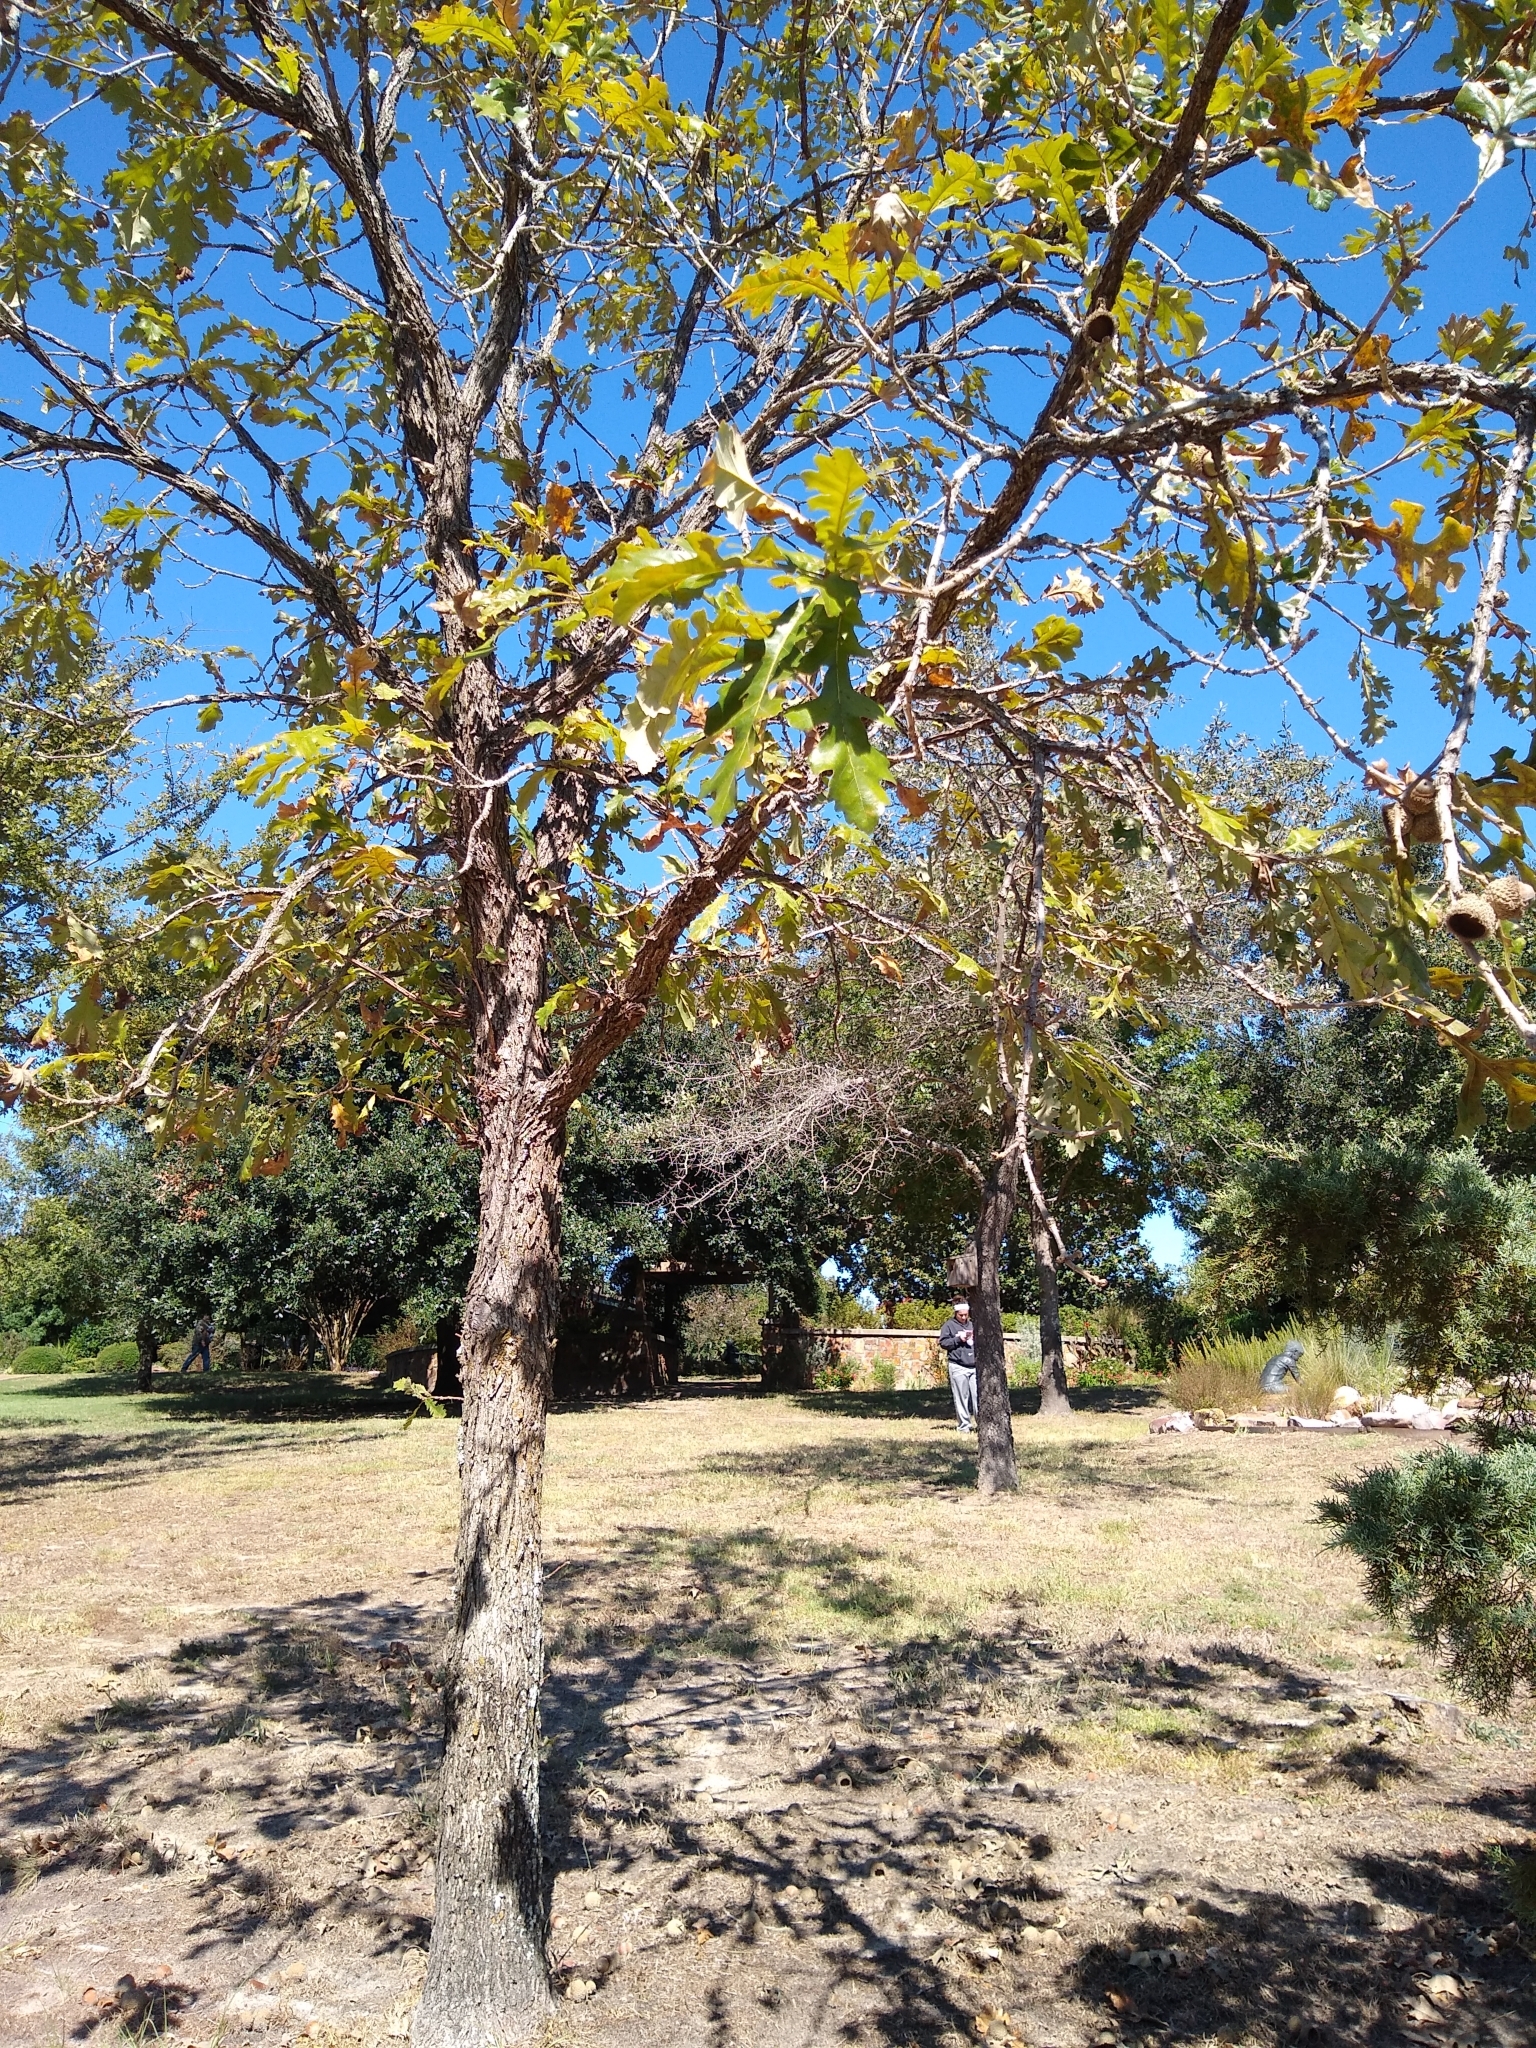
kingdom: Plantae
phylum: Tracheophyta
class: Magnoliopsida
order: Fagales
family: Fagaceae
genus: Quercus
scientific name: Quercus macrocarpa
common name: Bur oak
